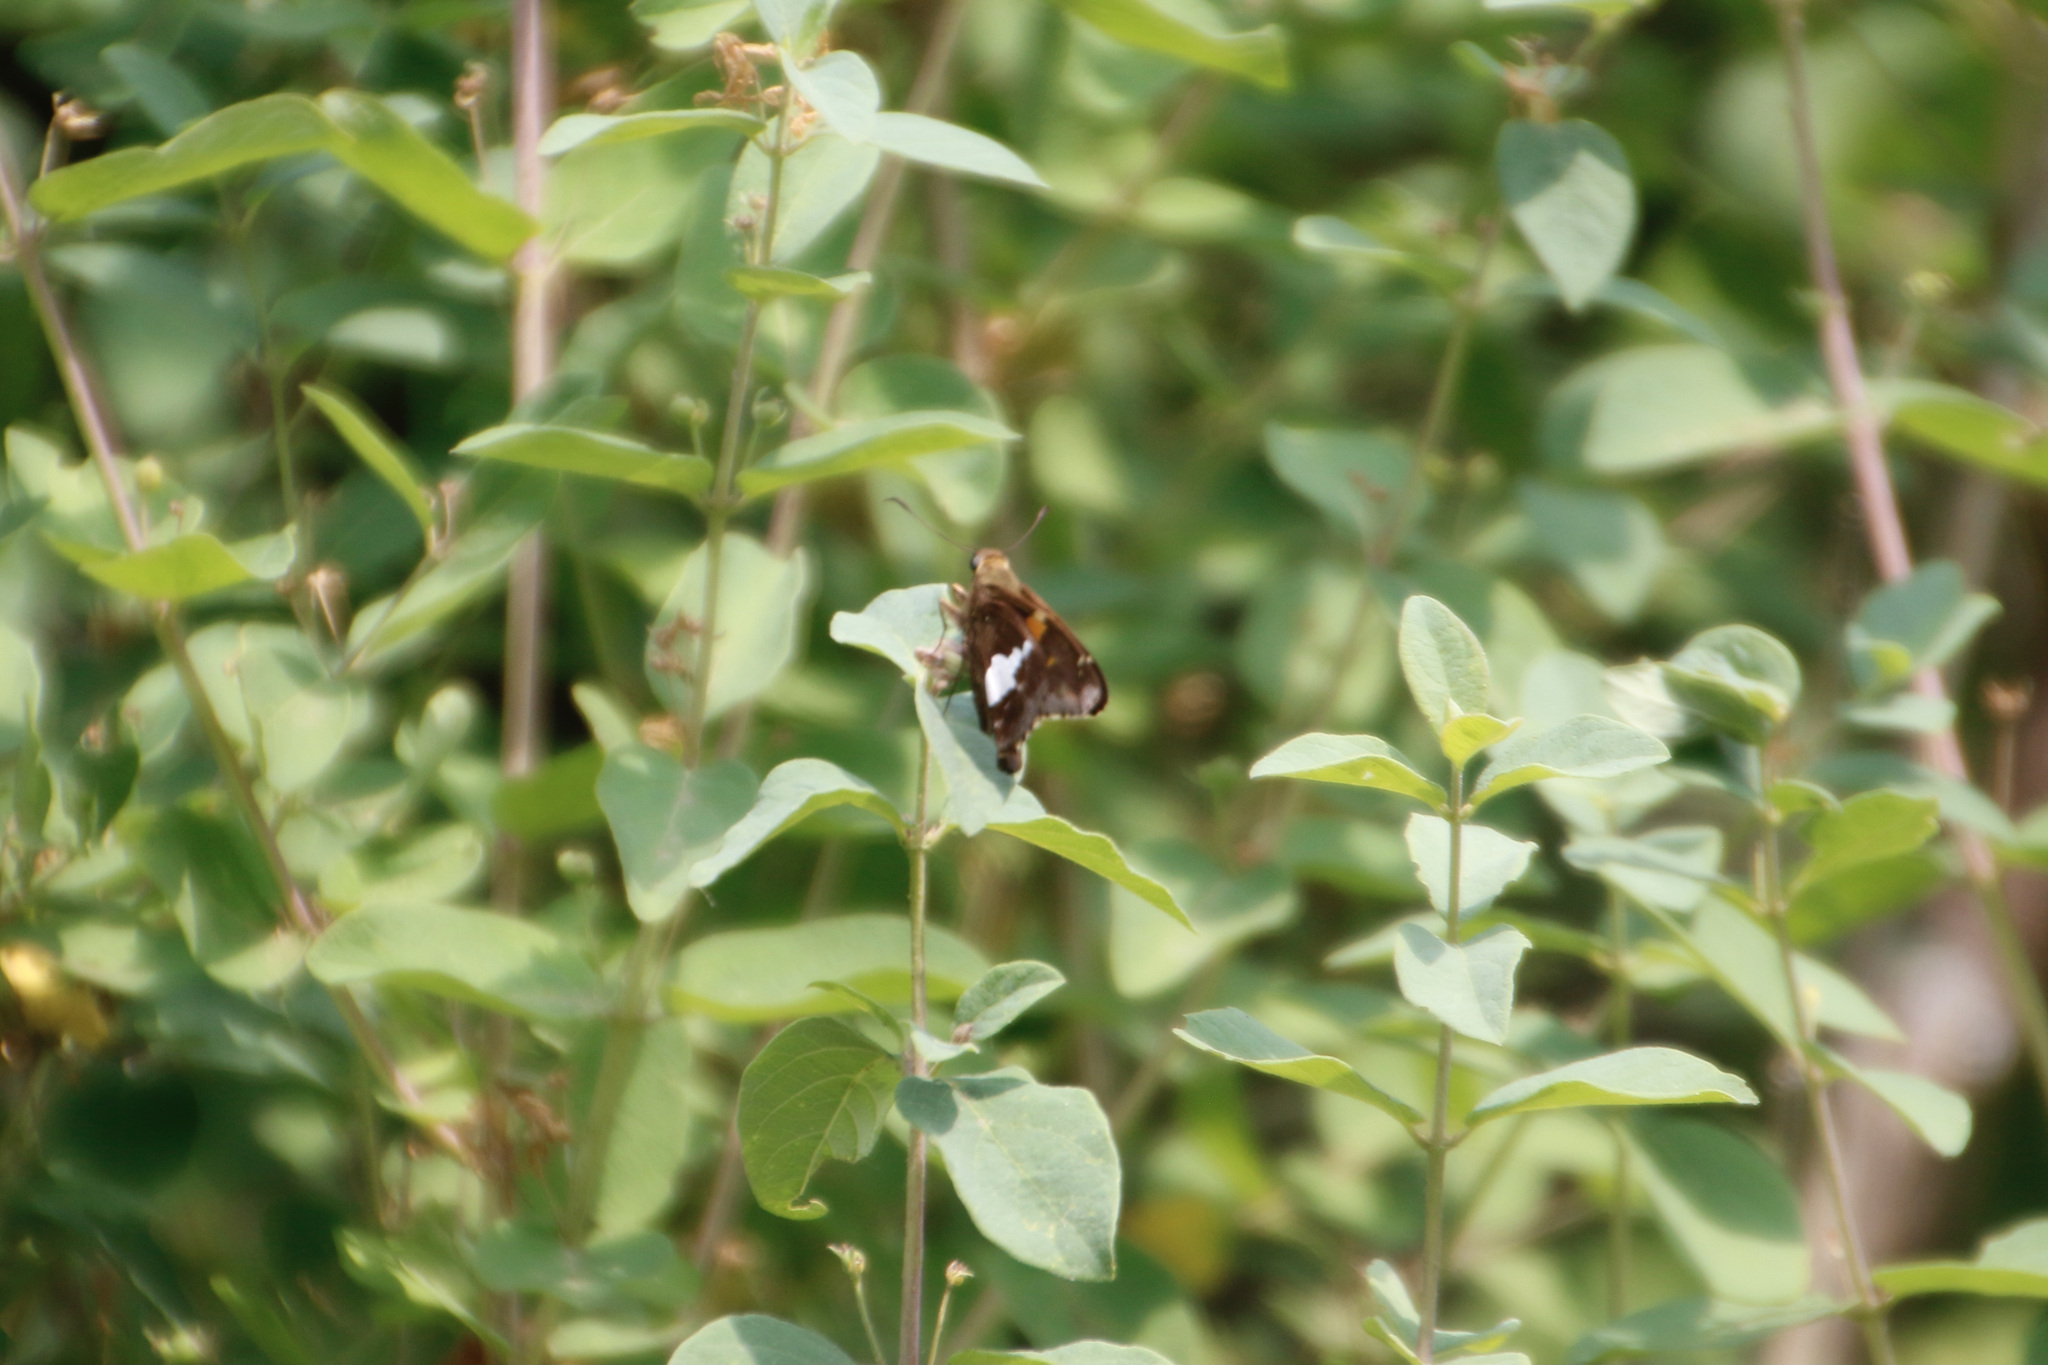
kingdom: Animalia
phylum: Arthropoda
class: Insecta
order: Lepidoptera
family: Hesperiidae
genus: Epargyreus
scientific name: Epargyreus clarus
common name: Silver-spotted skipper
